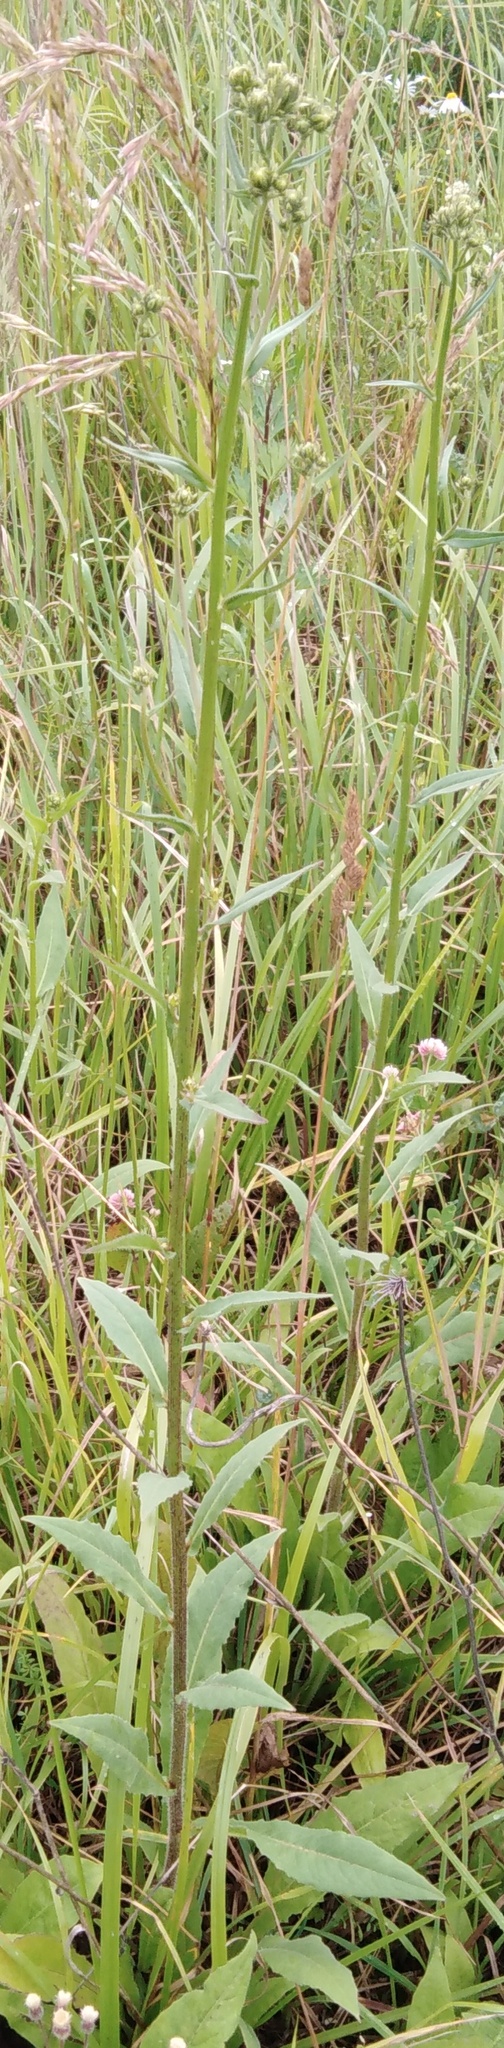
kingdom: Plantae
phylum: Tracheophyta
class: Magnoliopsida
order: Asterales
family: Asteraceae
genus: Picris
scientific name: Picris hieracioides
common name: Hawkweed oxtongue
